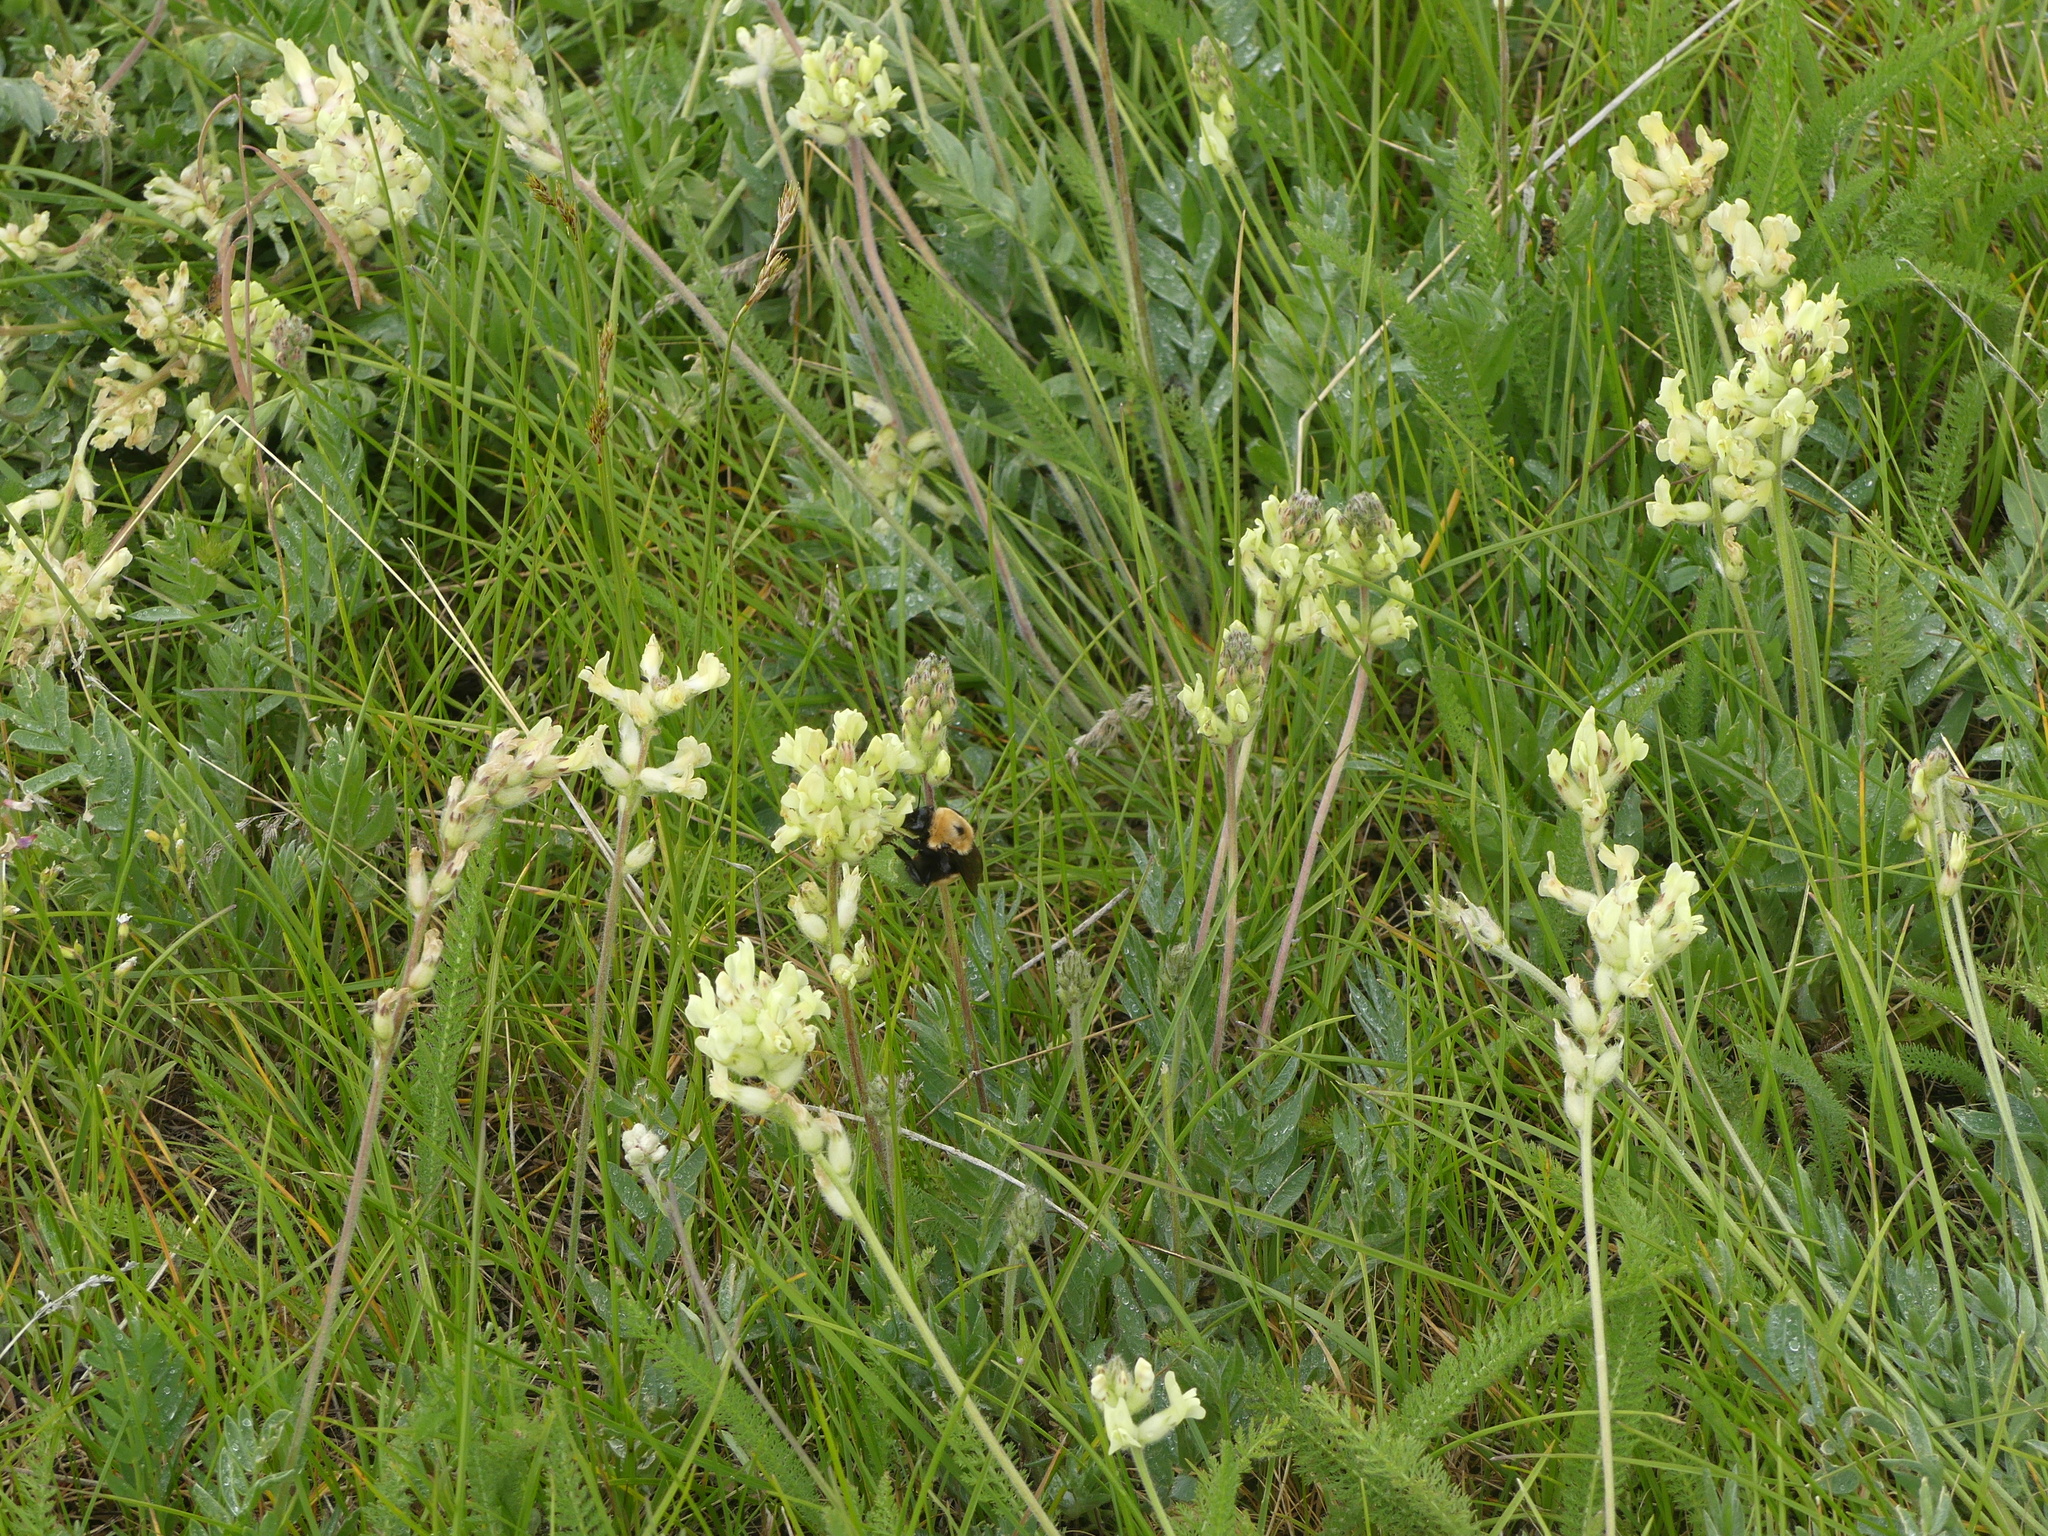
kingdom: Animalia
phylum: Arthropoda
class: Insecta
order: Hymenoptera
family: Apidae
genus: Bombus
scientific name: Bombus nevadensis
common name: Nevada bumble bee
